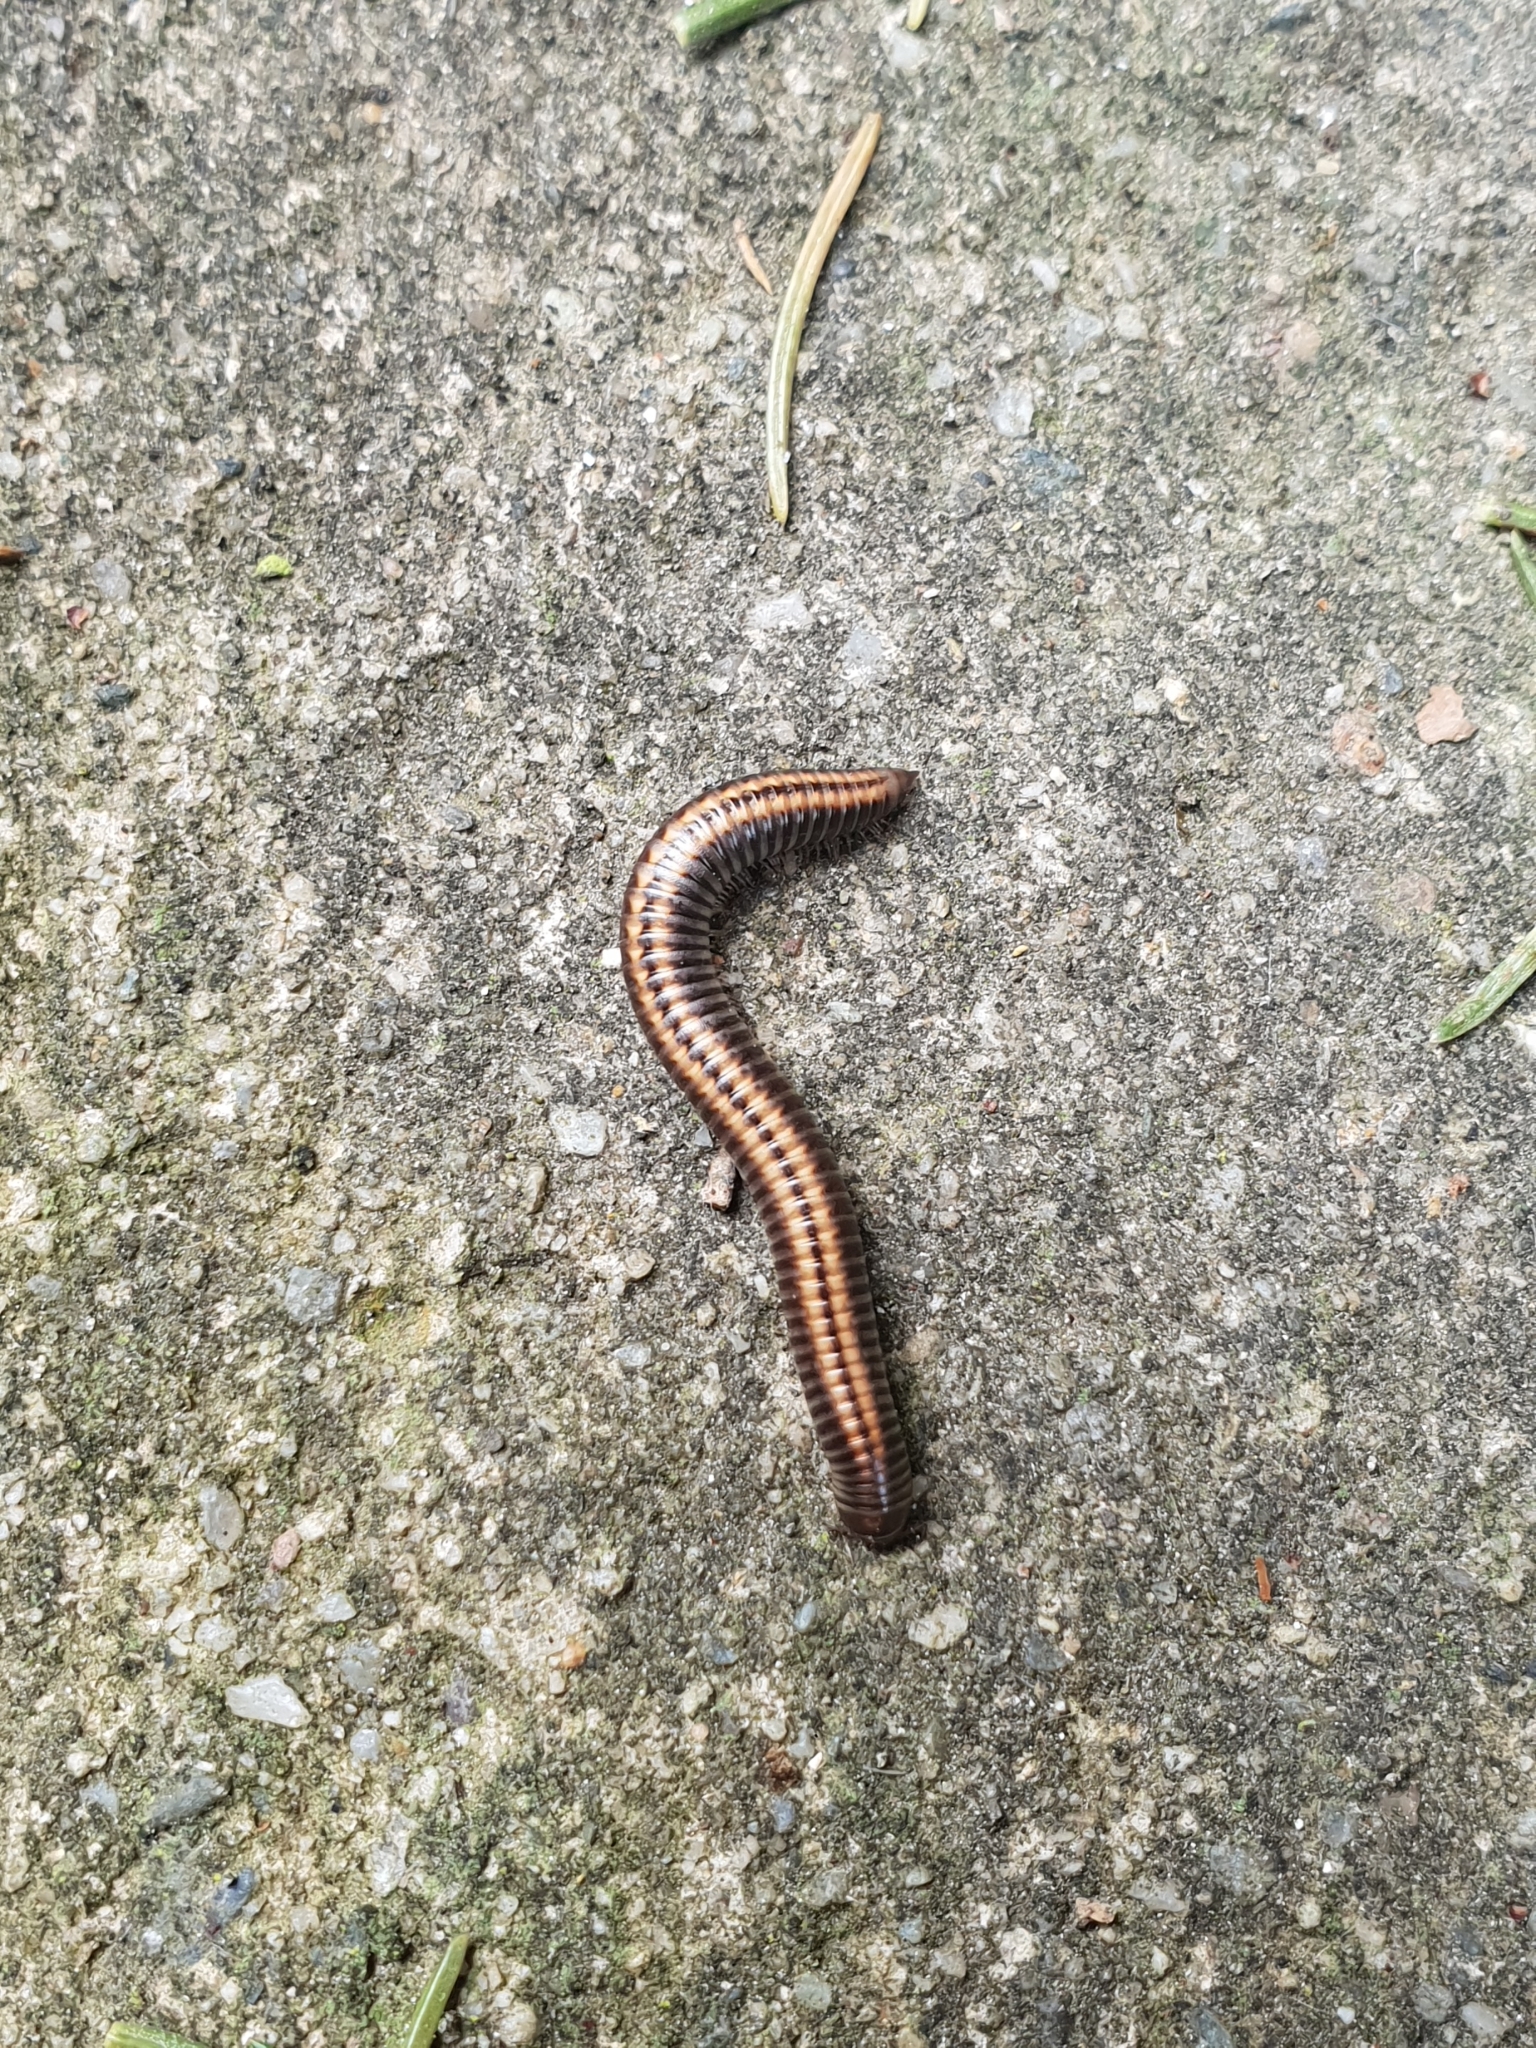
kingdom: Animalia
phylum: Arthropoda
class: Diplopoda
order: Julida
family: Julidae
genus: Ommatoiulus
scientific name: Ommatoiulus sabulosus
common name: Striped millipede
